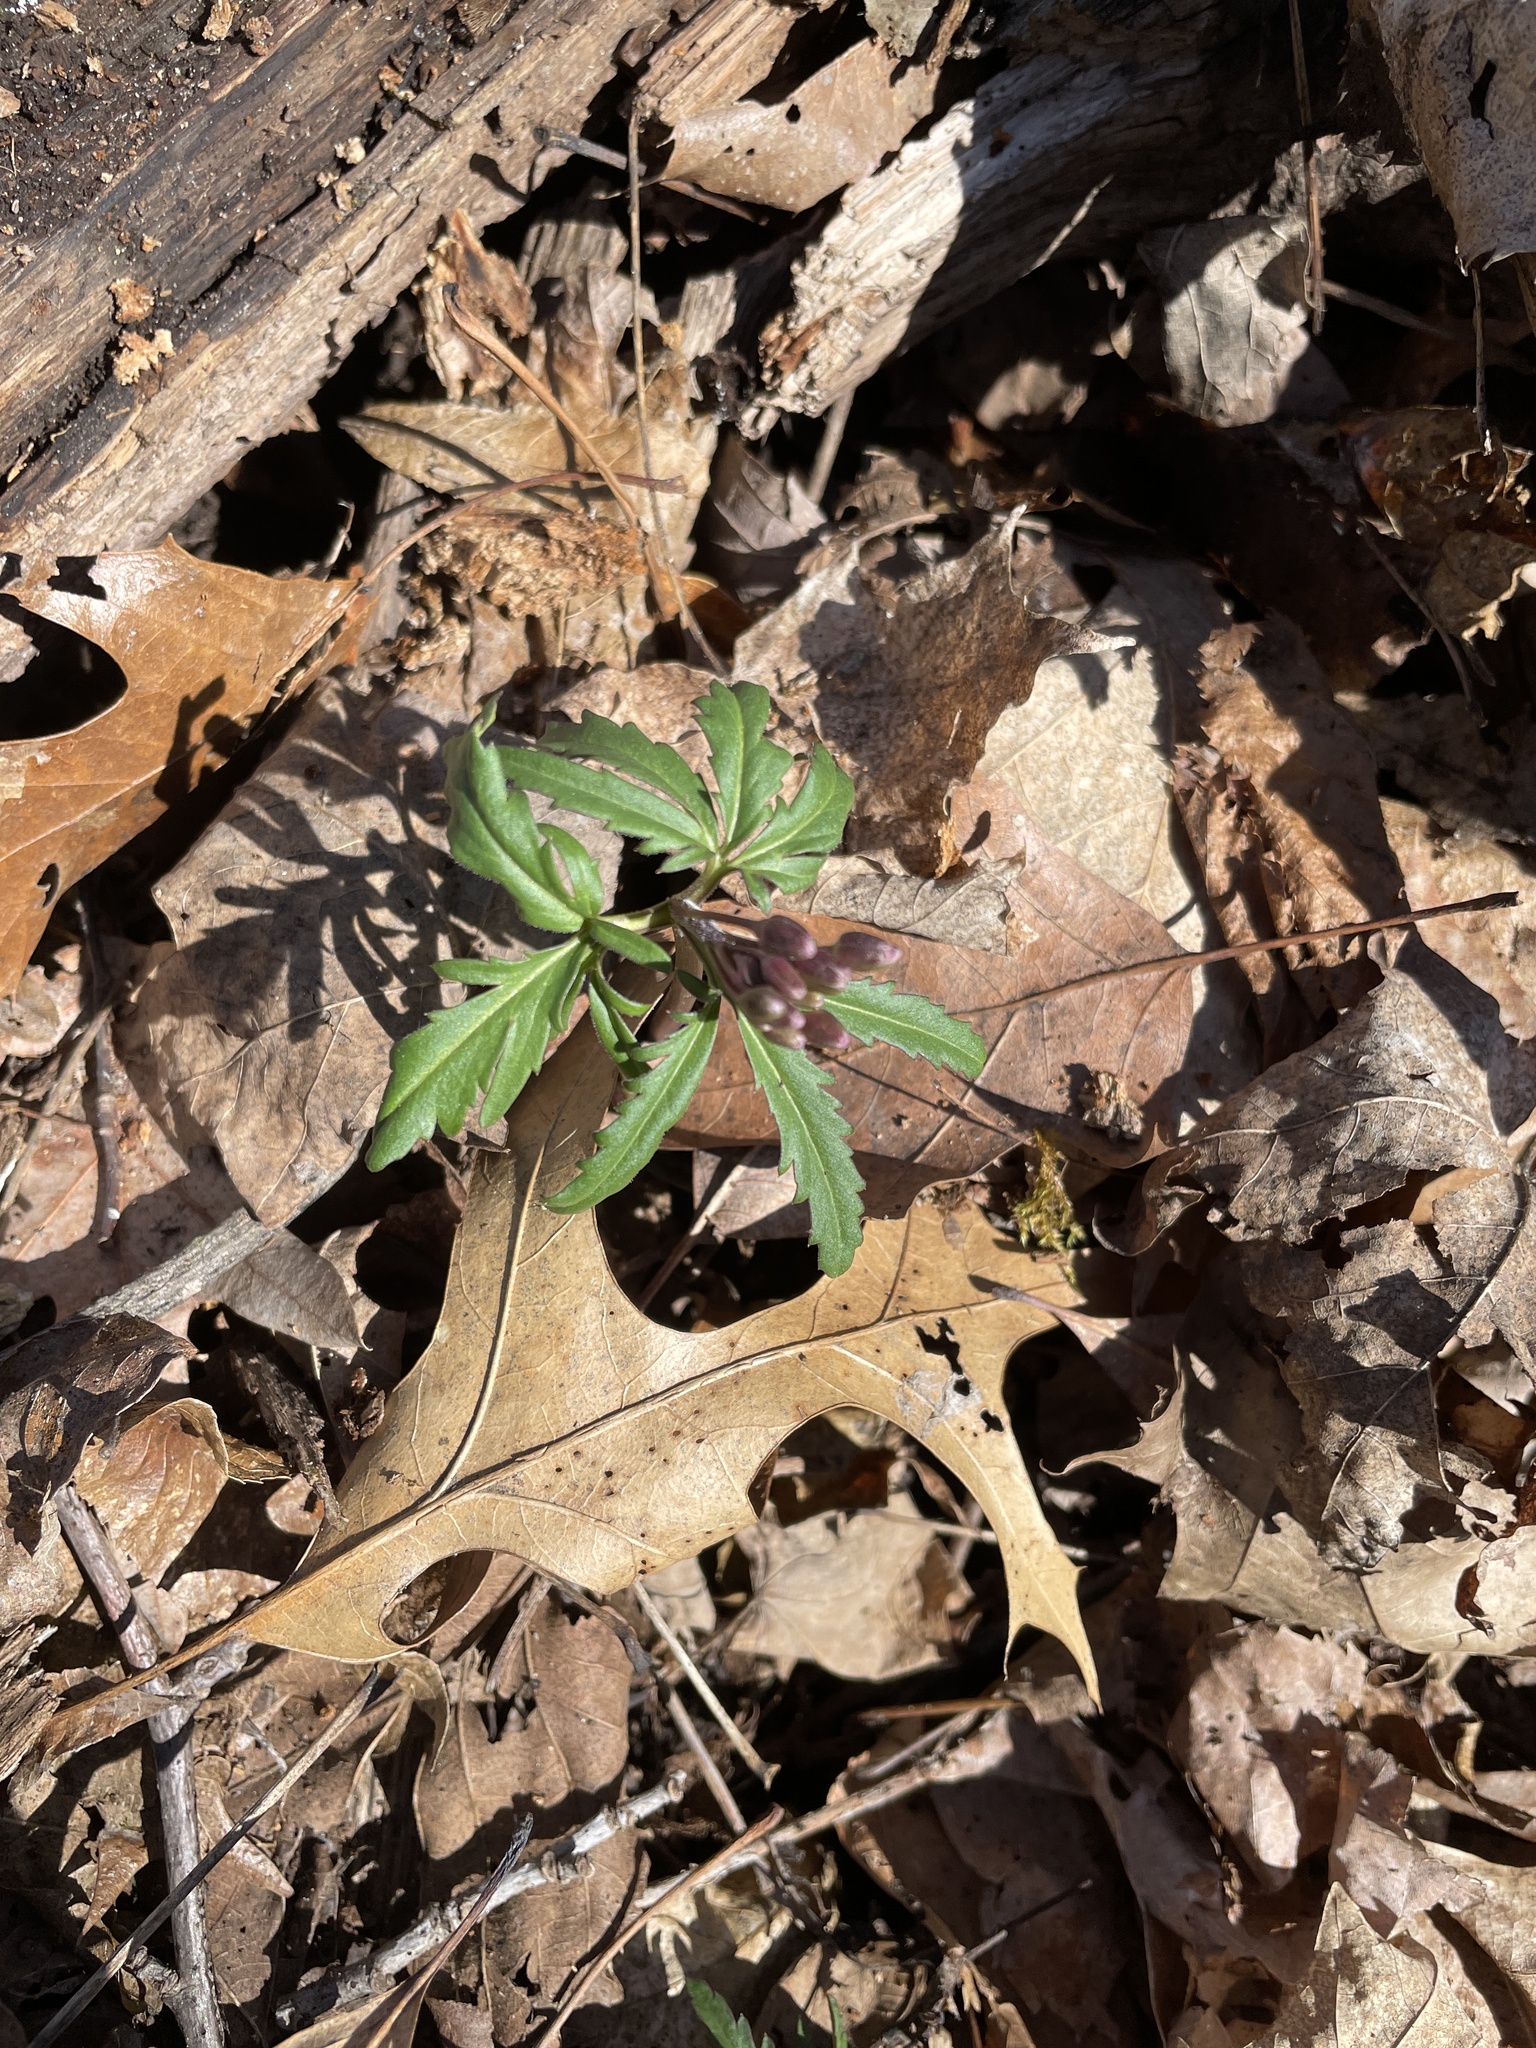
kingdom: Plantae
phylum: Tracheophyta
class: Magnoliopsida
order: Brassicales
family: Brassicaceae
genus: Cardamine
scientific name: Cardamine concatenata
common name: Cut-leaf toothcup
